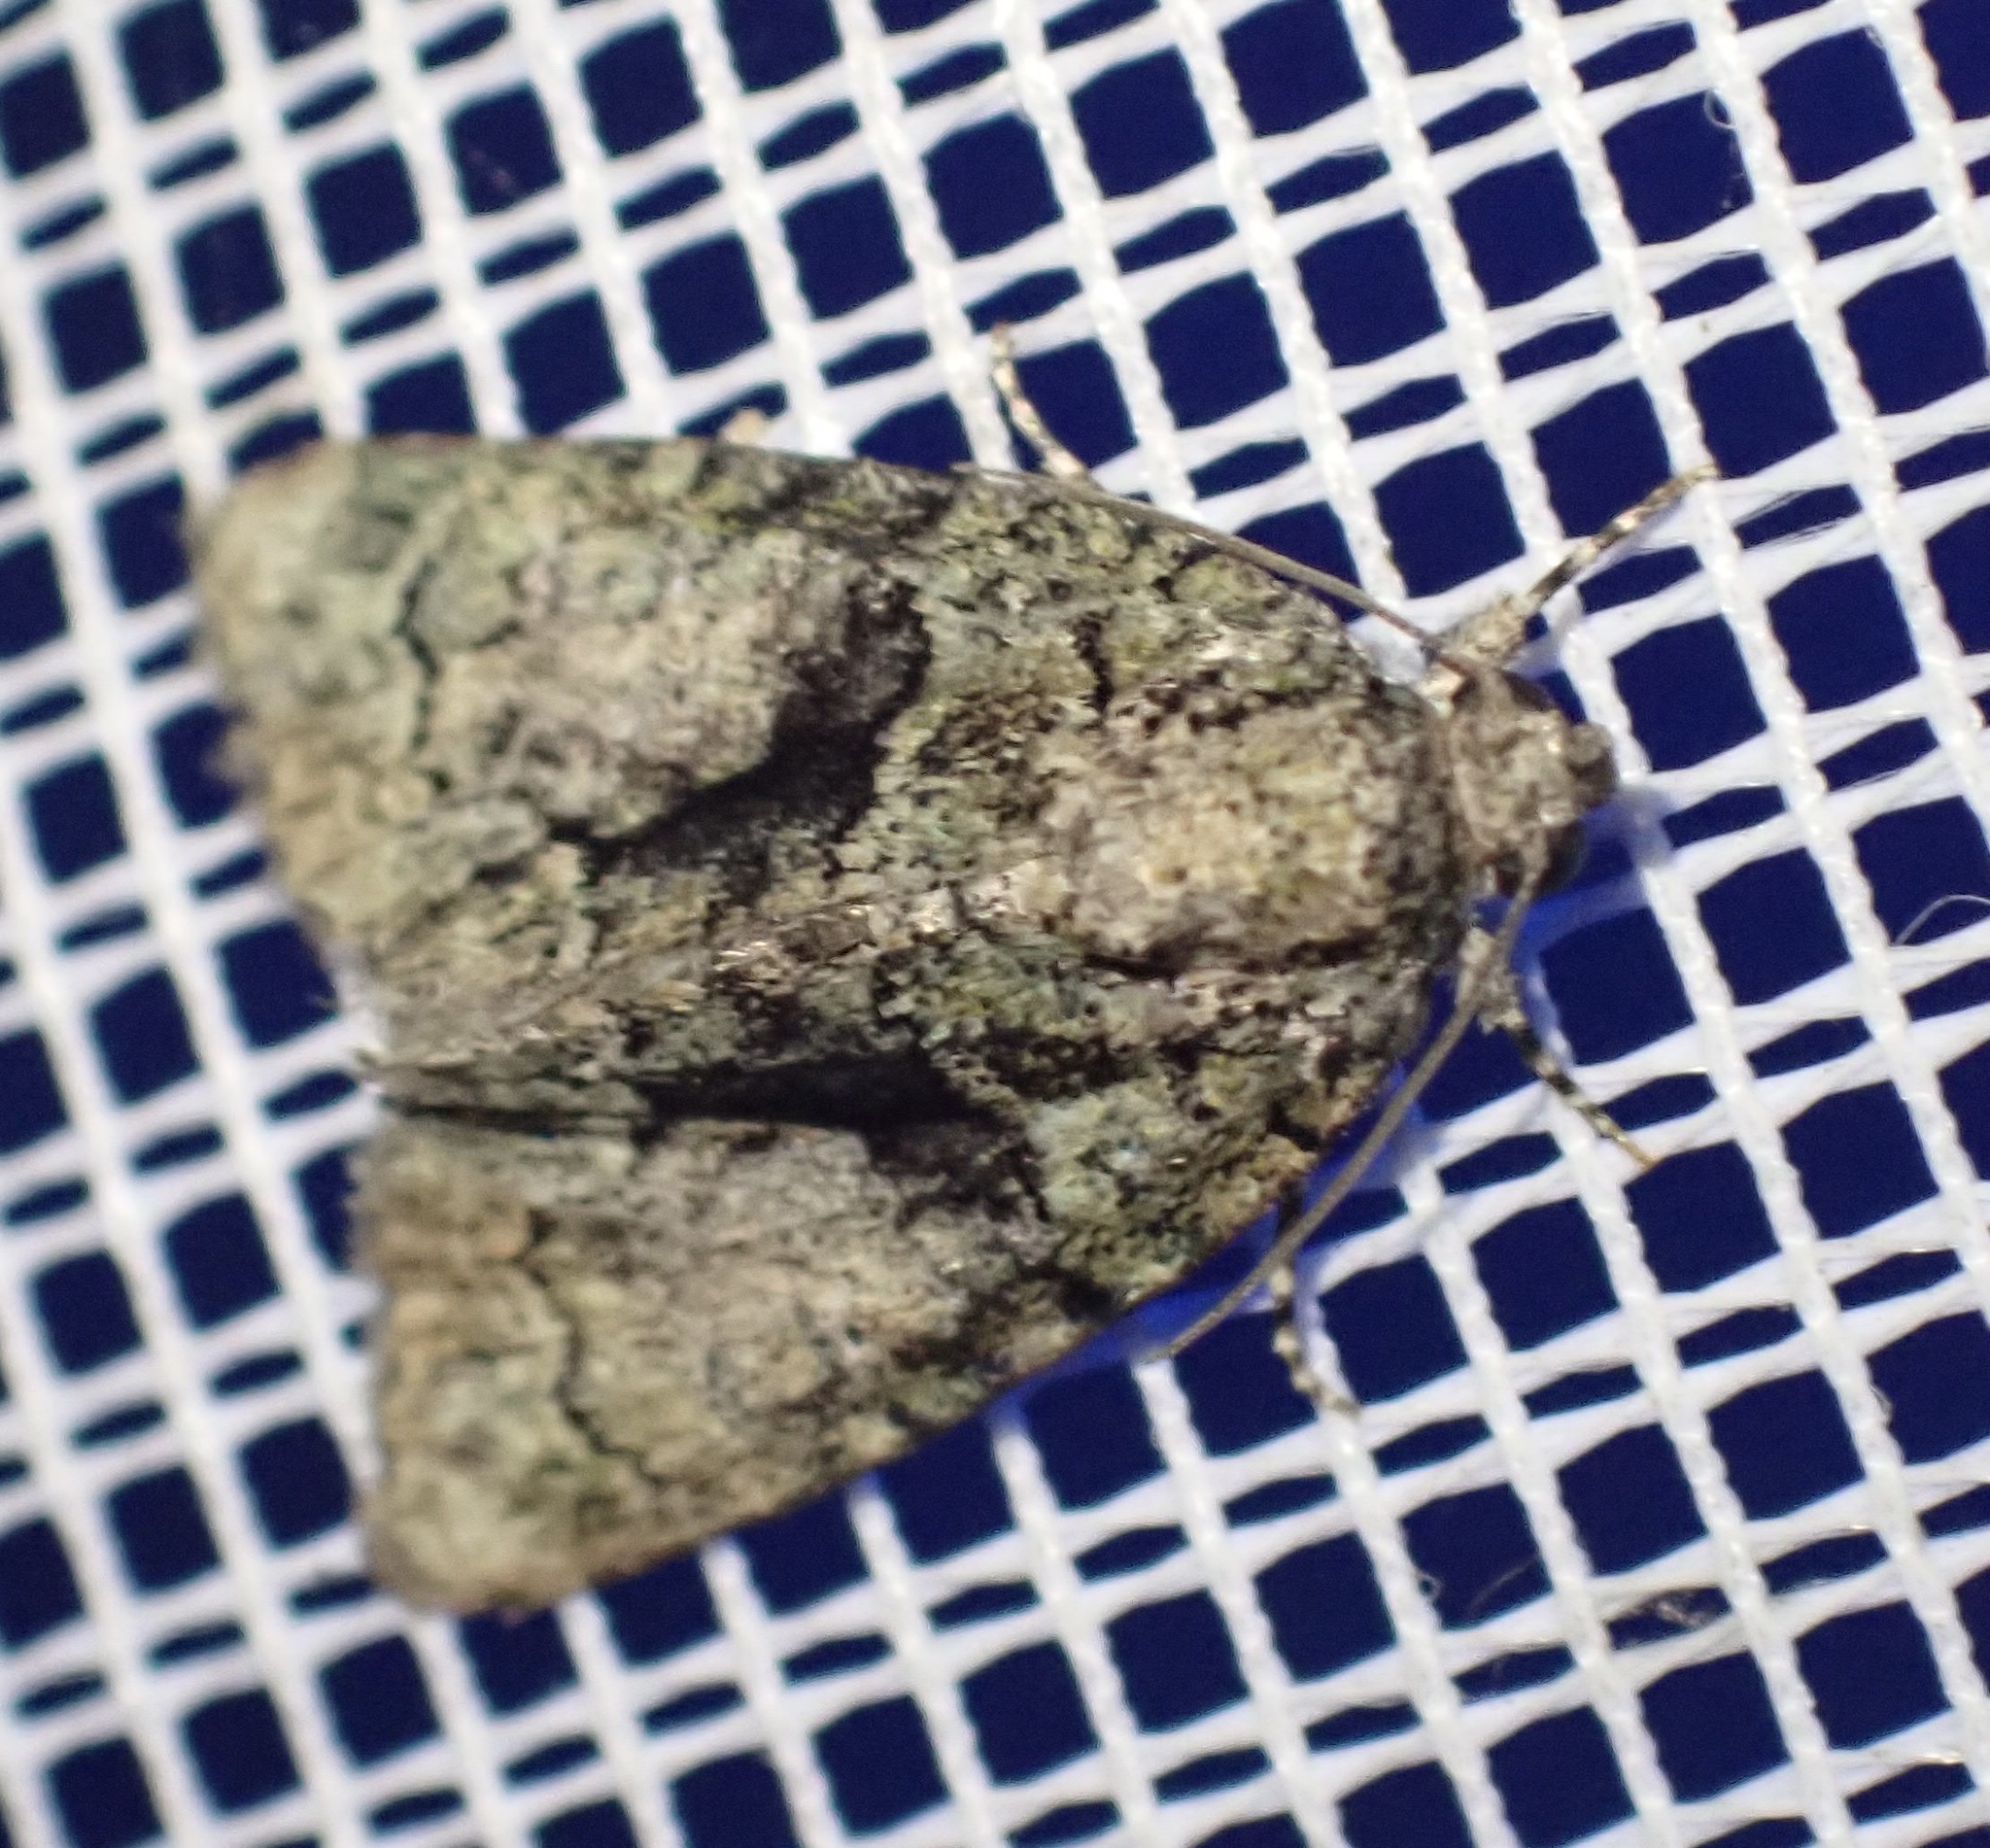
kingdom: Animalia
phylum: Arthropoda
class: Insecta
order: Lepidoptera
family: Noctuidae
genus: Cryphia
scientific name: Cryphia algae
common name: Tree-lichen beauty
